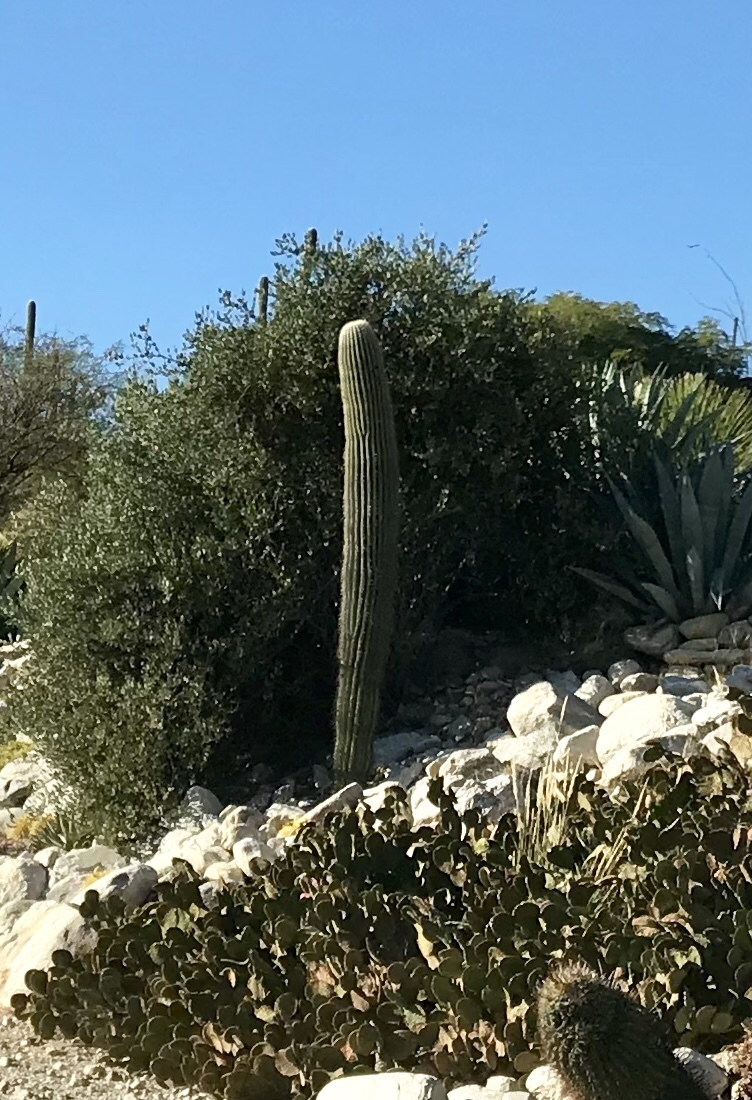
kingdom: Plantae
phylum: Tracheophyta
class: Magnoliopsida
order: Caryophyllales
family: Cactaceae
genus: Carnegiea
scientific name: Carnegiea gigantea
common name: Saguaro
